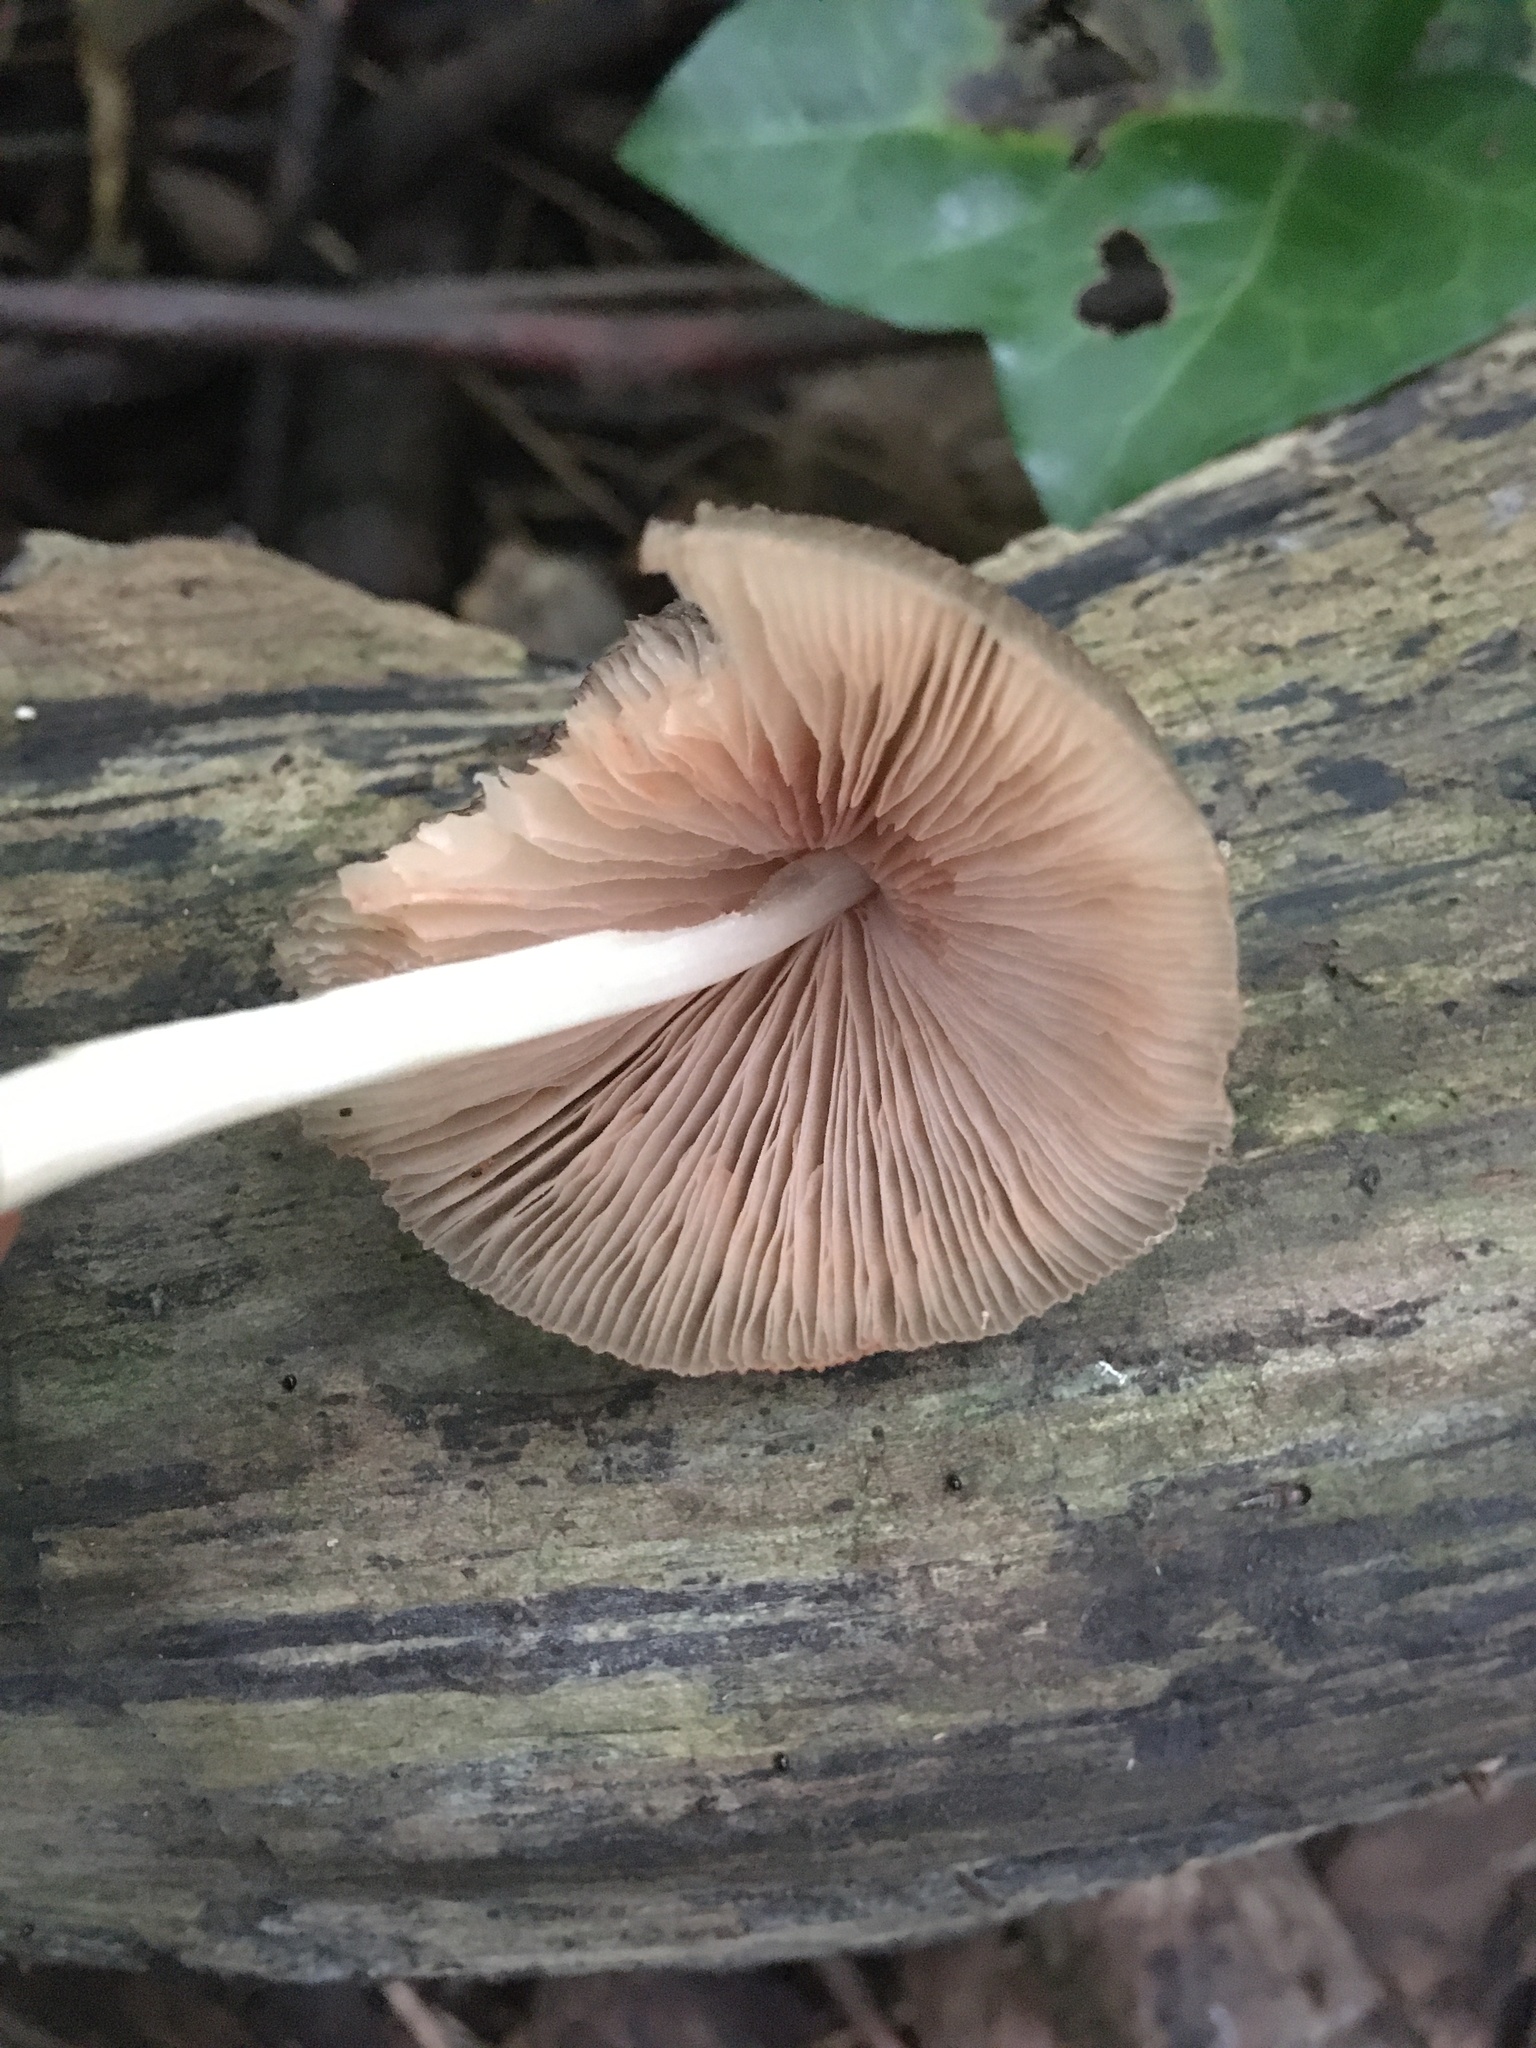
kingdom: Fungi
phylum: Basidiomycota
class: Agaricomycetes
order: Agaricales
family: Pluteaceae
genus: Pluteus
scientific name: Pluteus longistriatus
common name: Pleated pluteus
